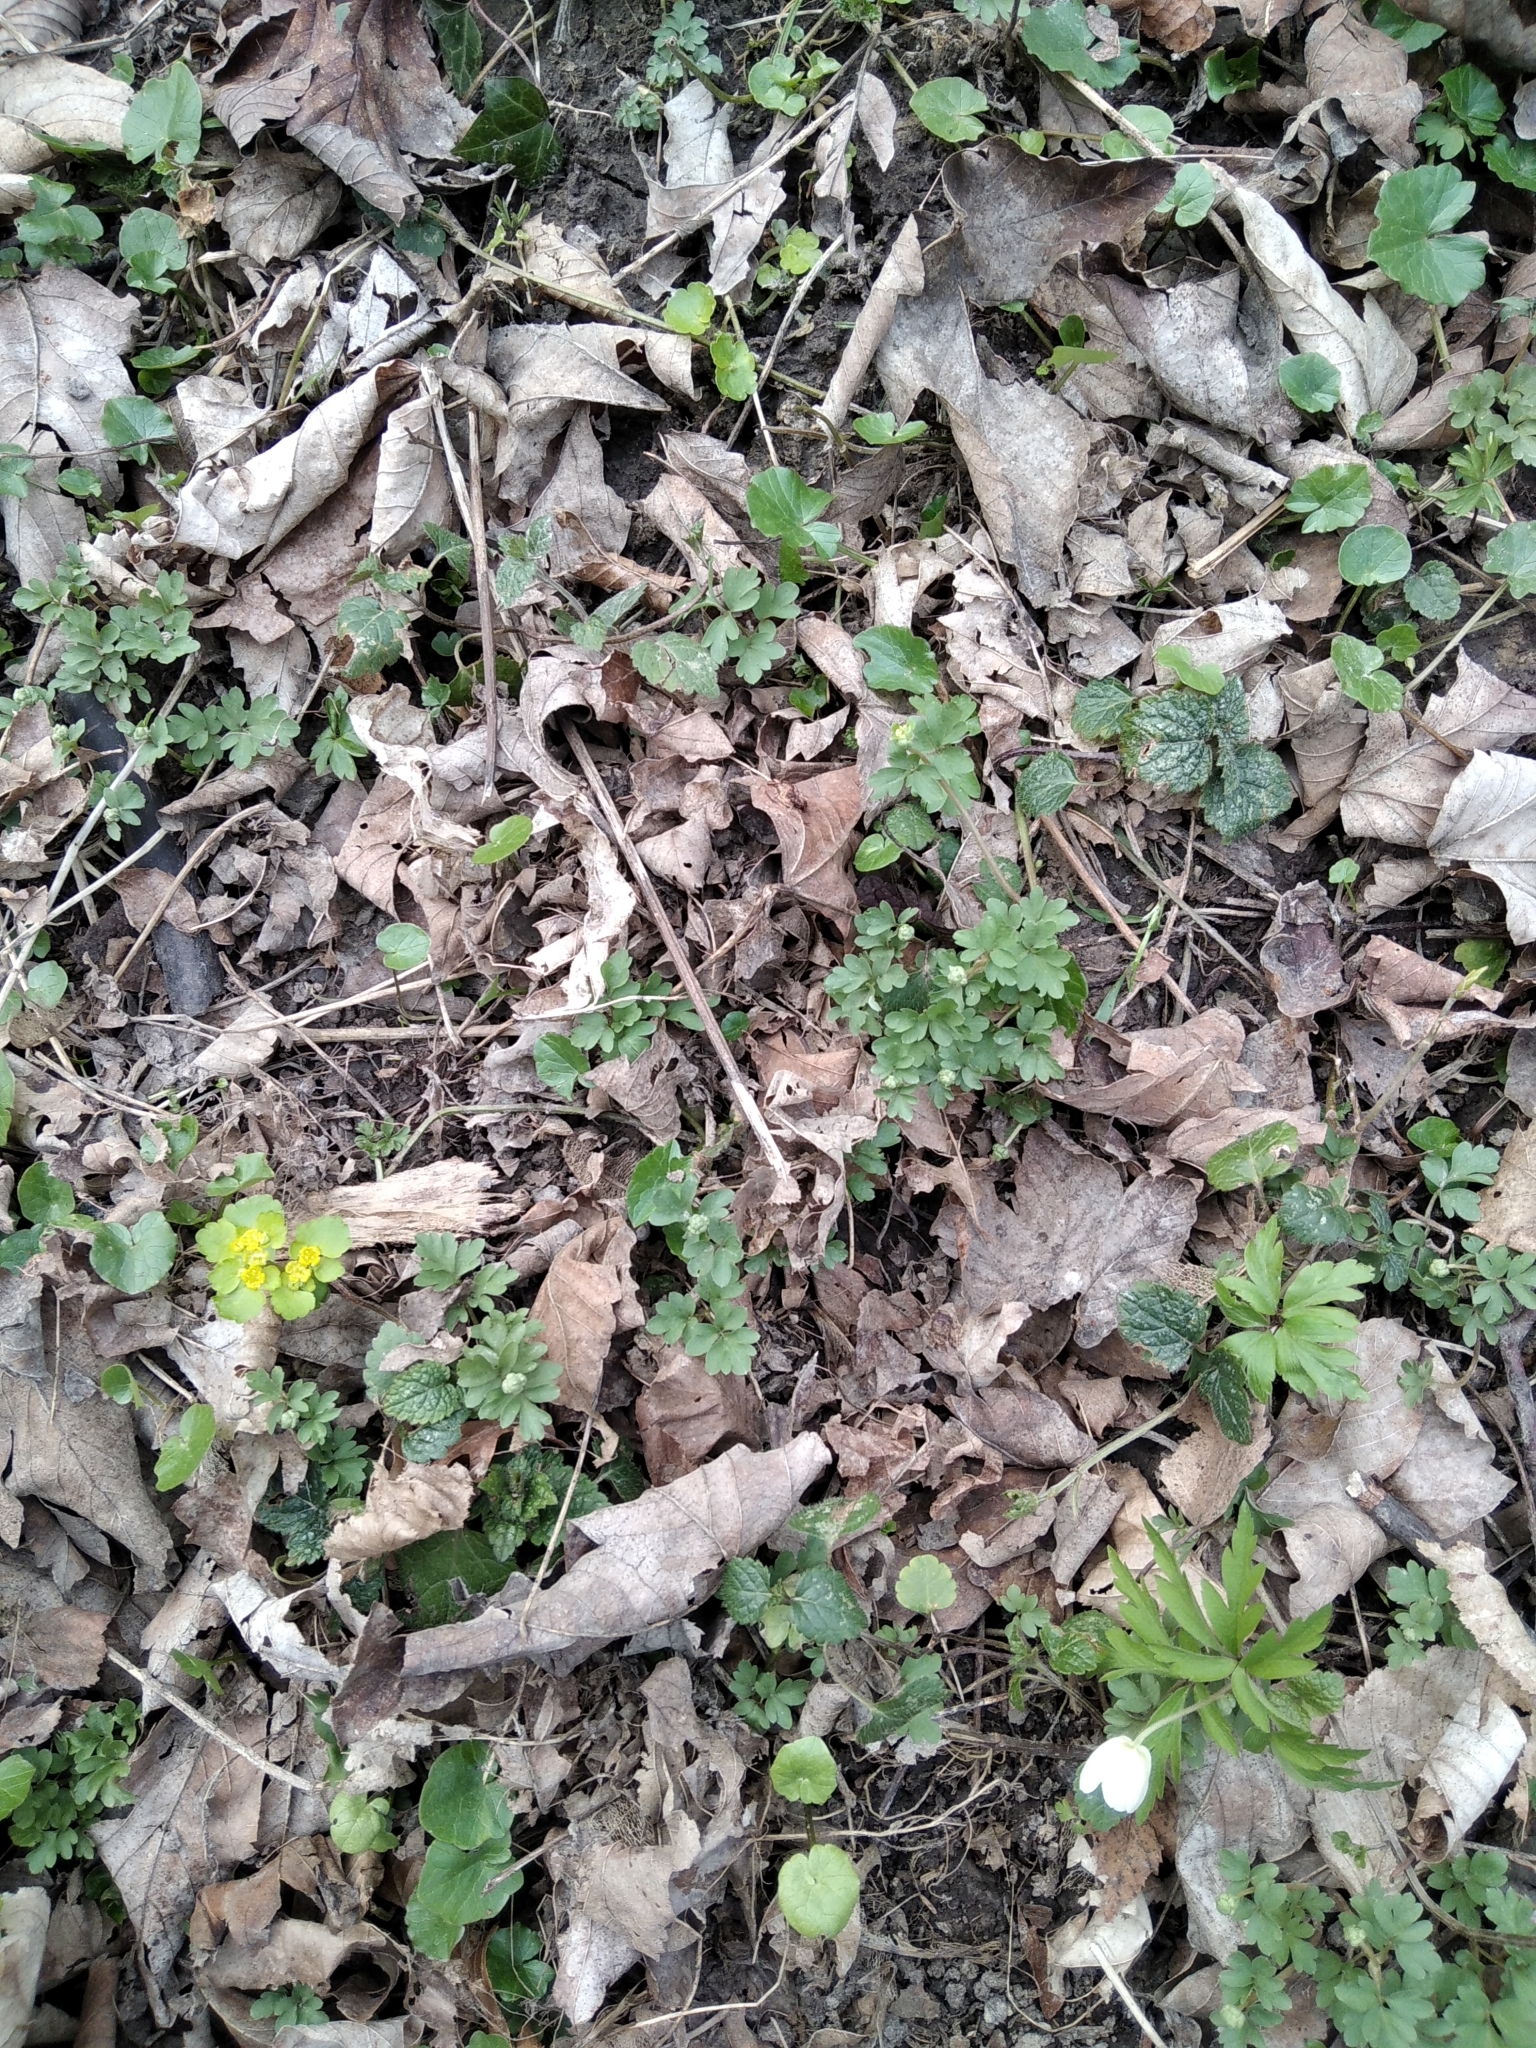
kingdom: Plantae
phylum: Tracheophyta
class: Magnoliopsida
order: Dipsacales
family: Viburnaceae
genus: Adoxa
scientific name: Adoxa moschatellina
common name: Moschatel
